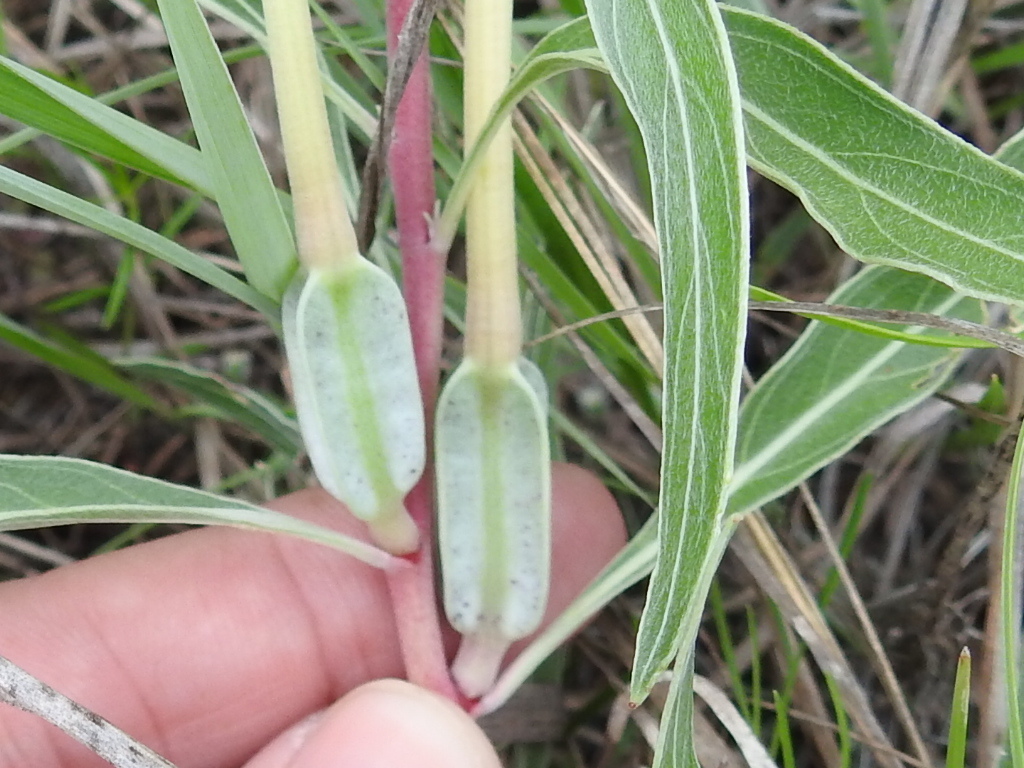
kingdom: Plantae
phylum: Tracheophyta
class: Magnoliopsida
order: Myrtales
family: Onagraceae
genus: Oenothera
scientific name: Oenothera macrocarpa
